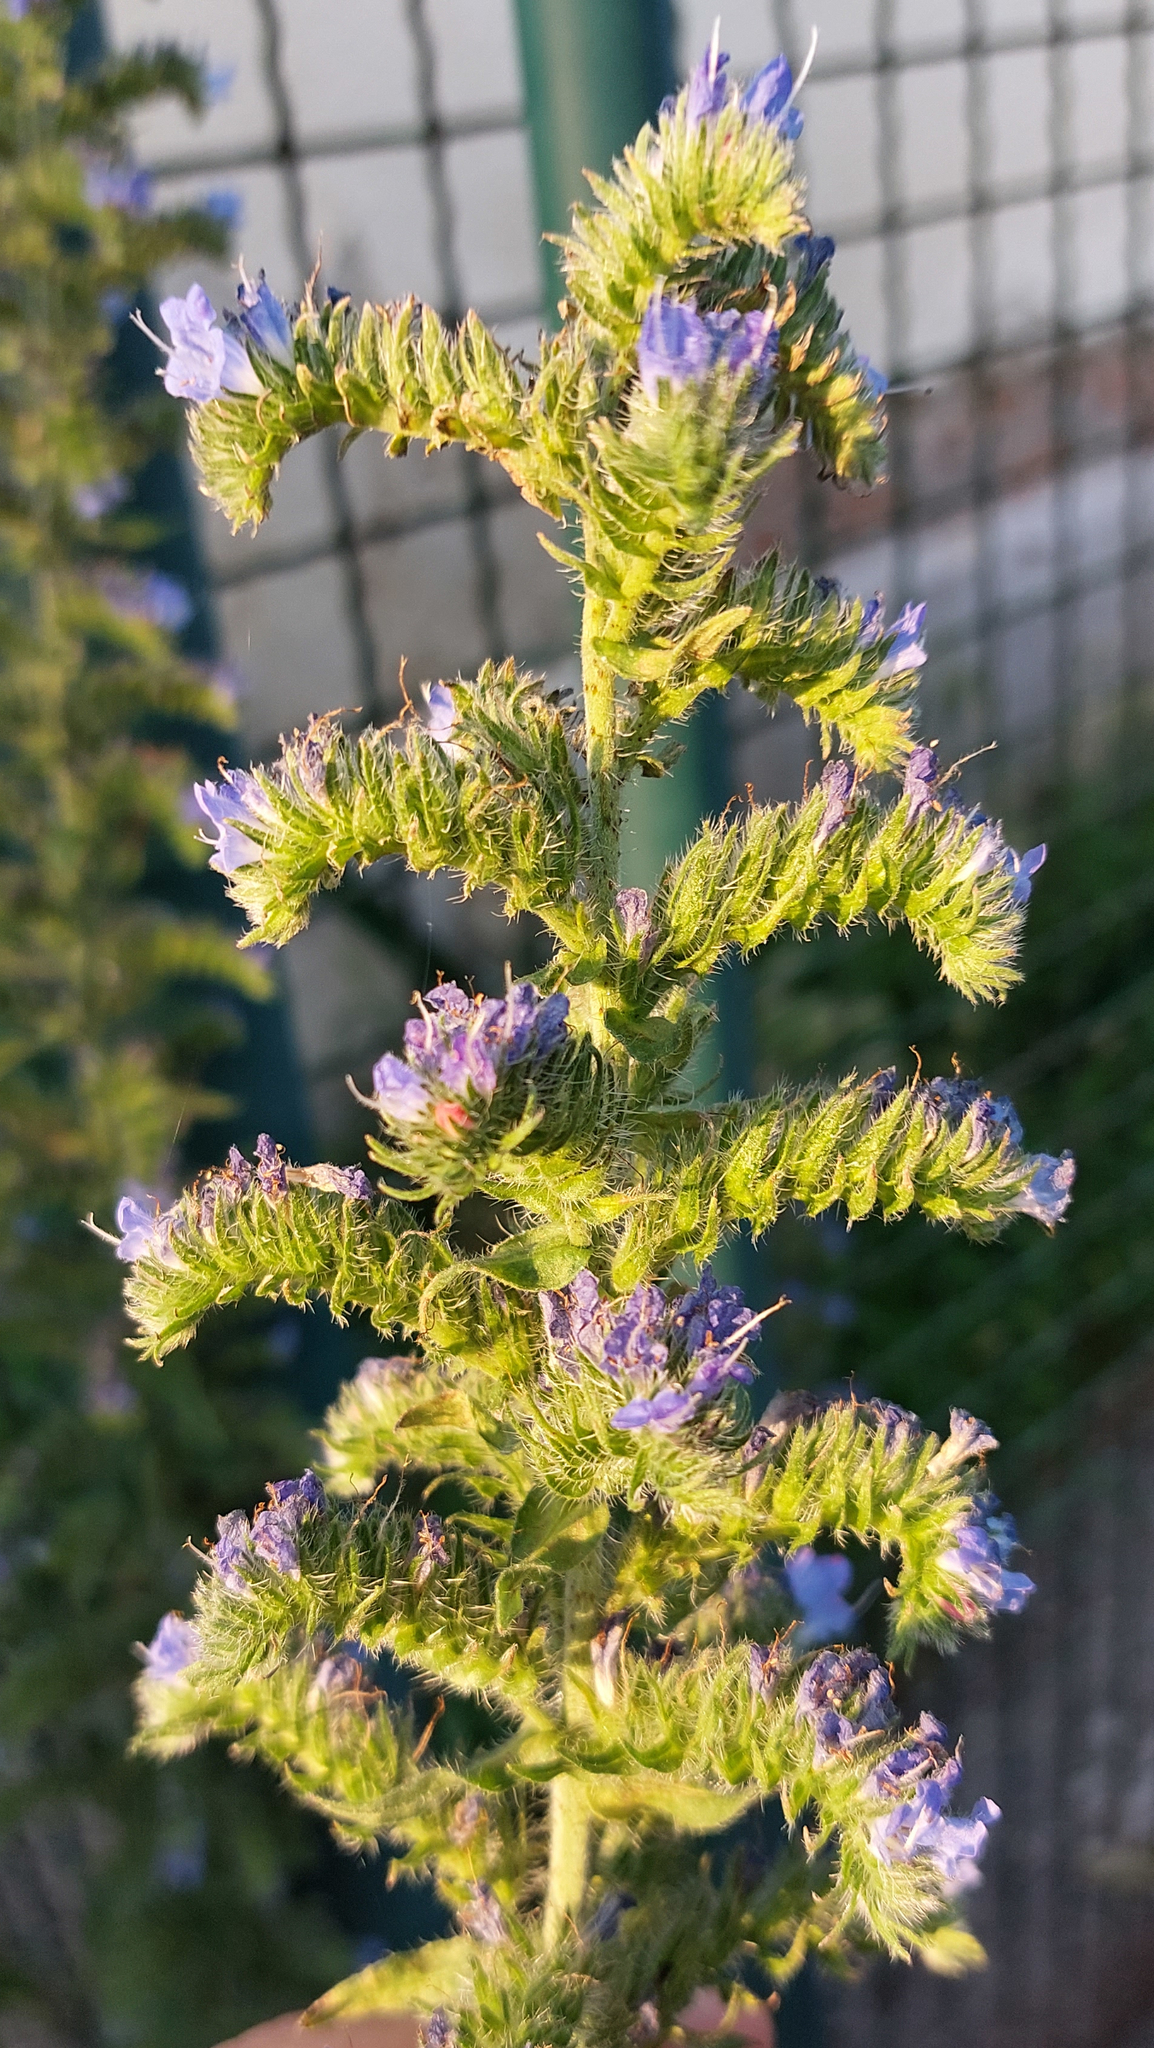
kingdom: Plantae
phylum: Tracheophyta
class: Magnoliopsida
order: Boraginales
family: Boraginaceae
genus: Echium
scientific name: Echium vulgare
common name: Common viper's bugloss
